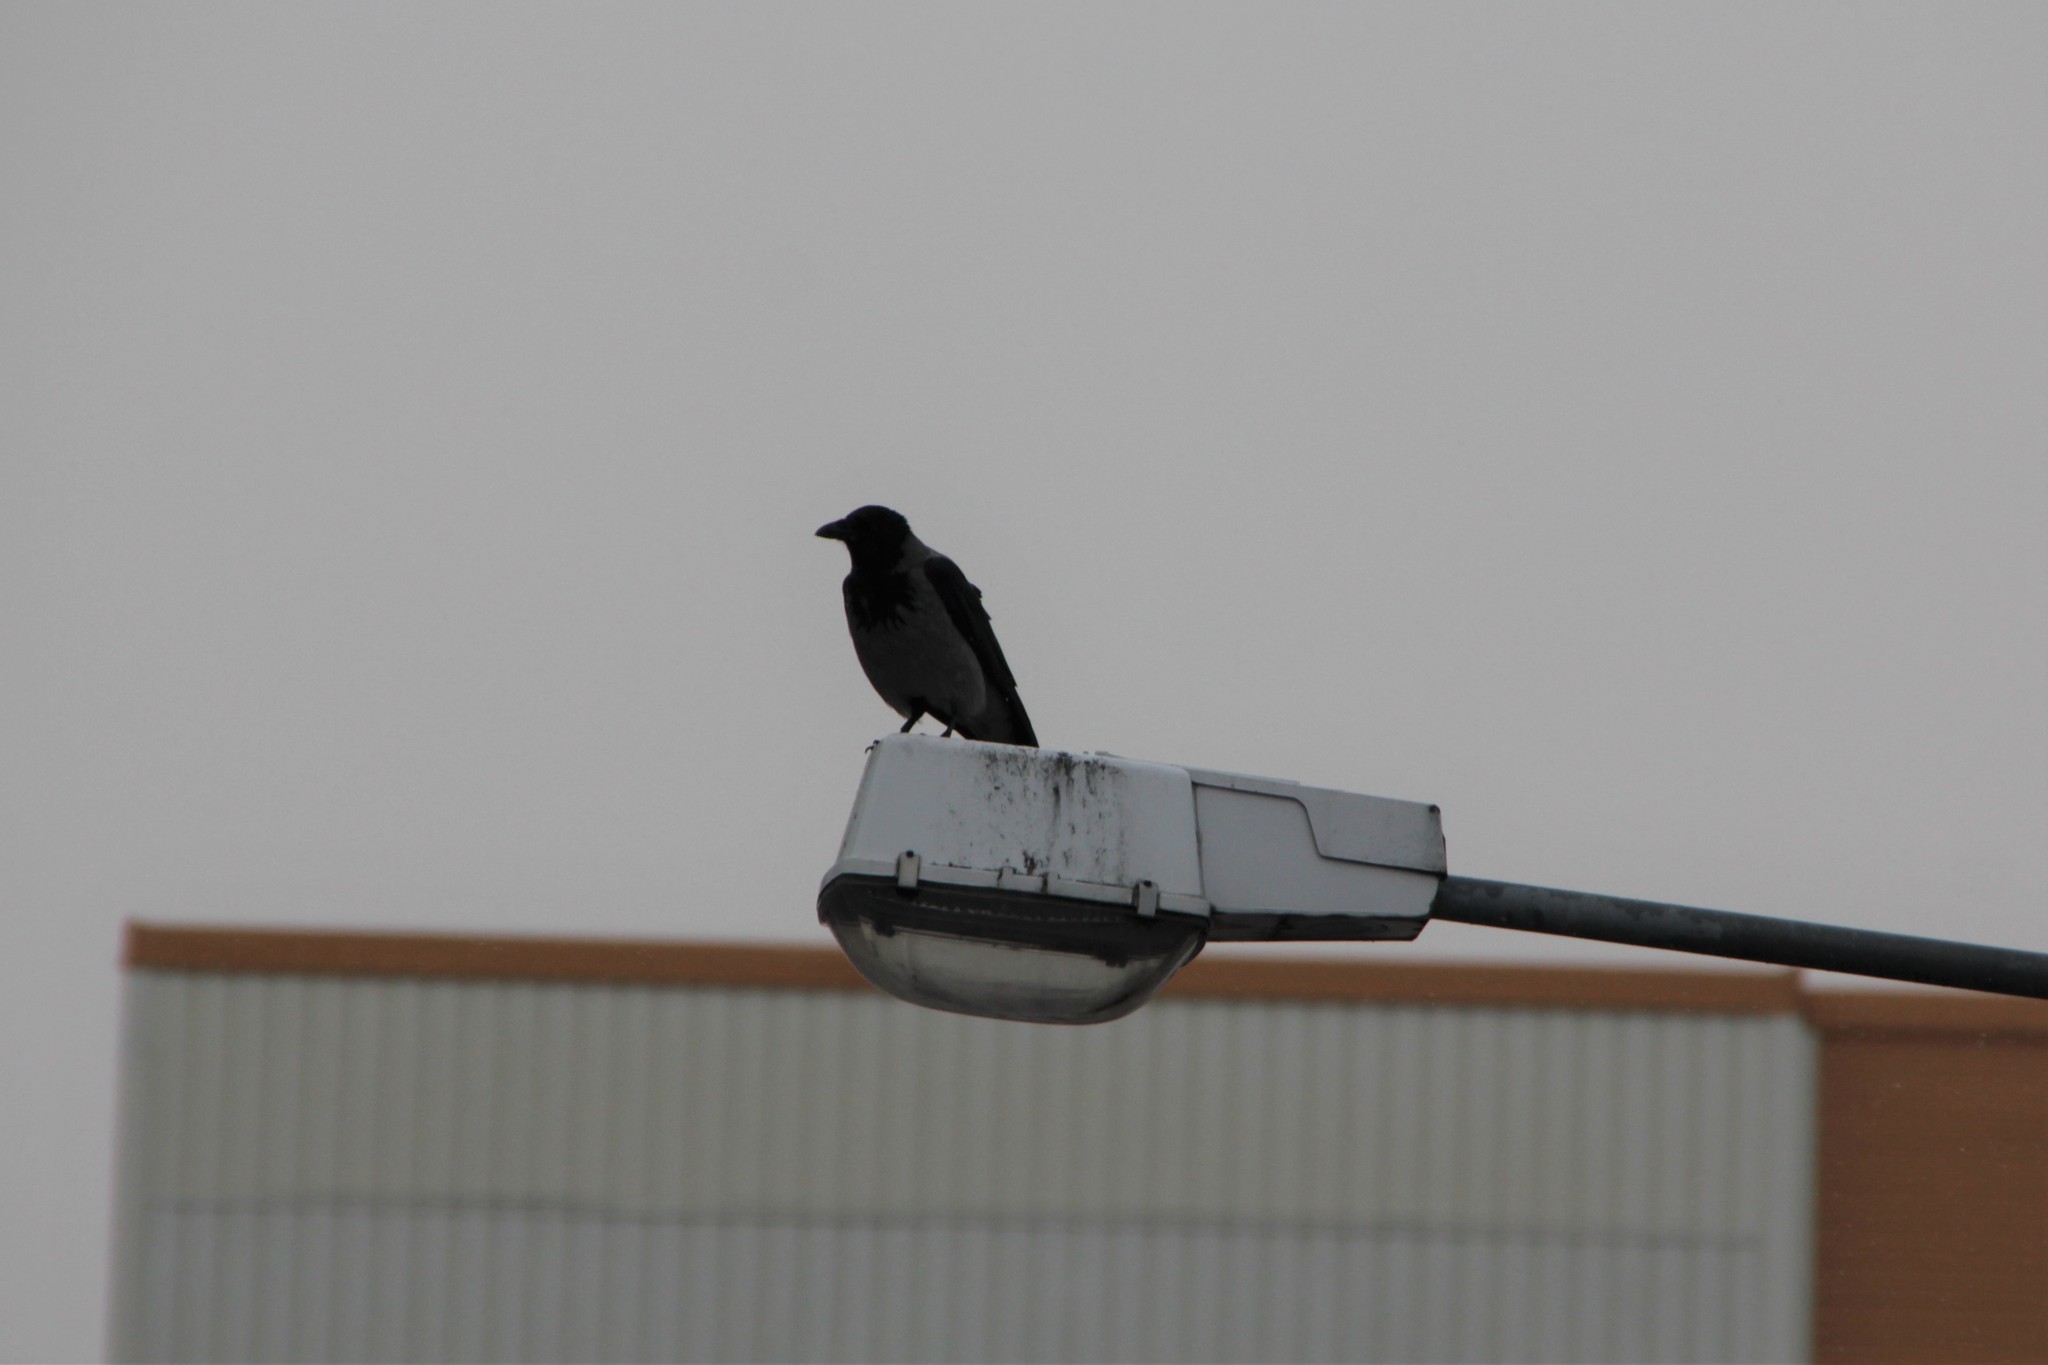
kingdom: Animalia
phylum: Chordata
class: Aves
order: Passeriformes
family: Corvidae
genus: Corvus
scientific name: Corvus cornix
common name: Hooded crow
